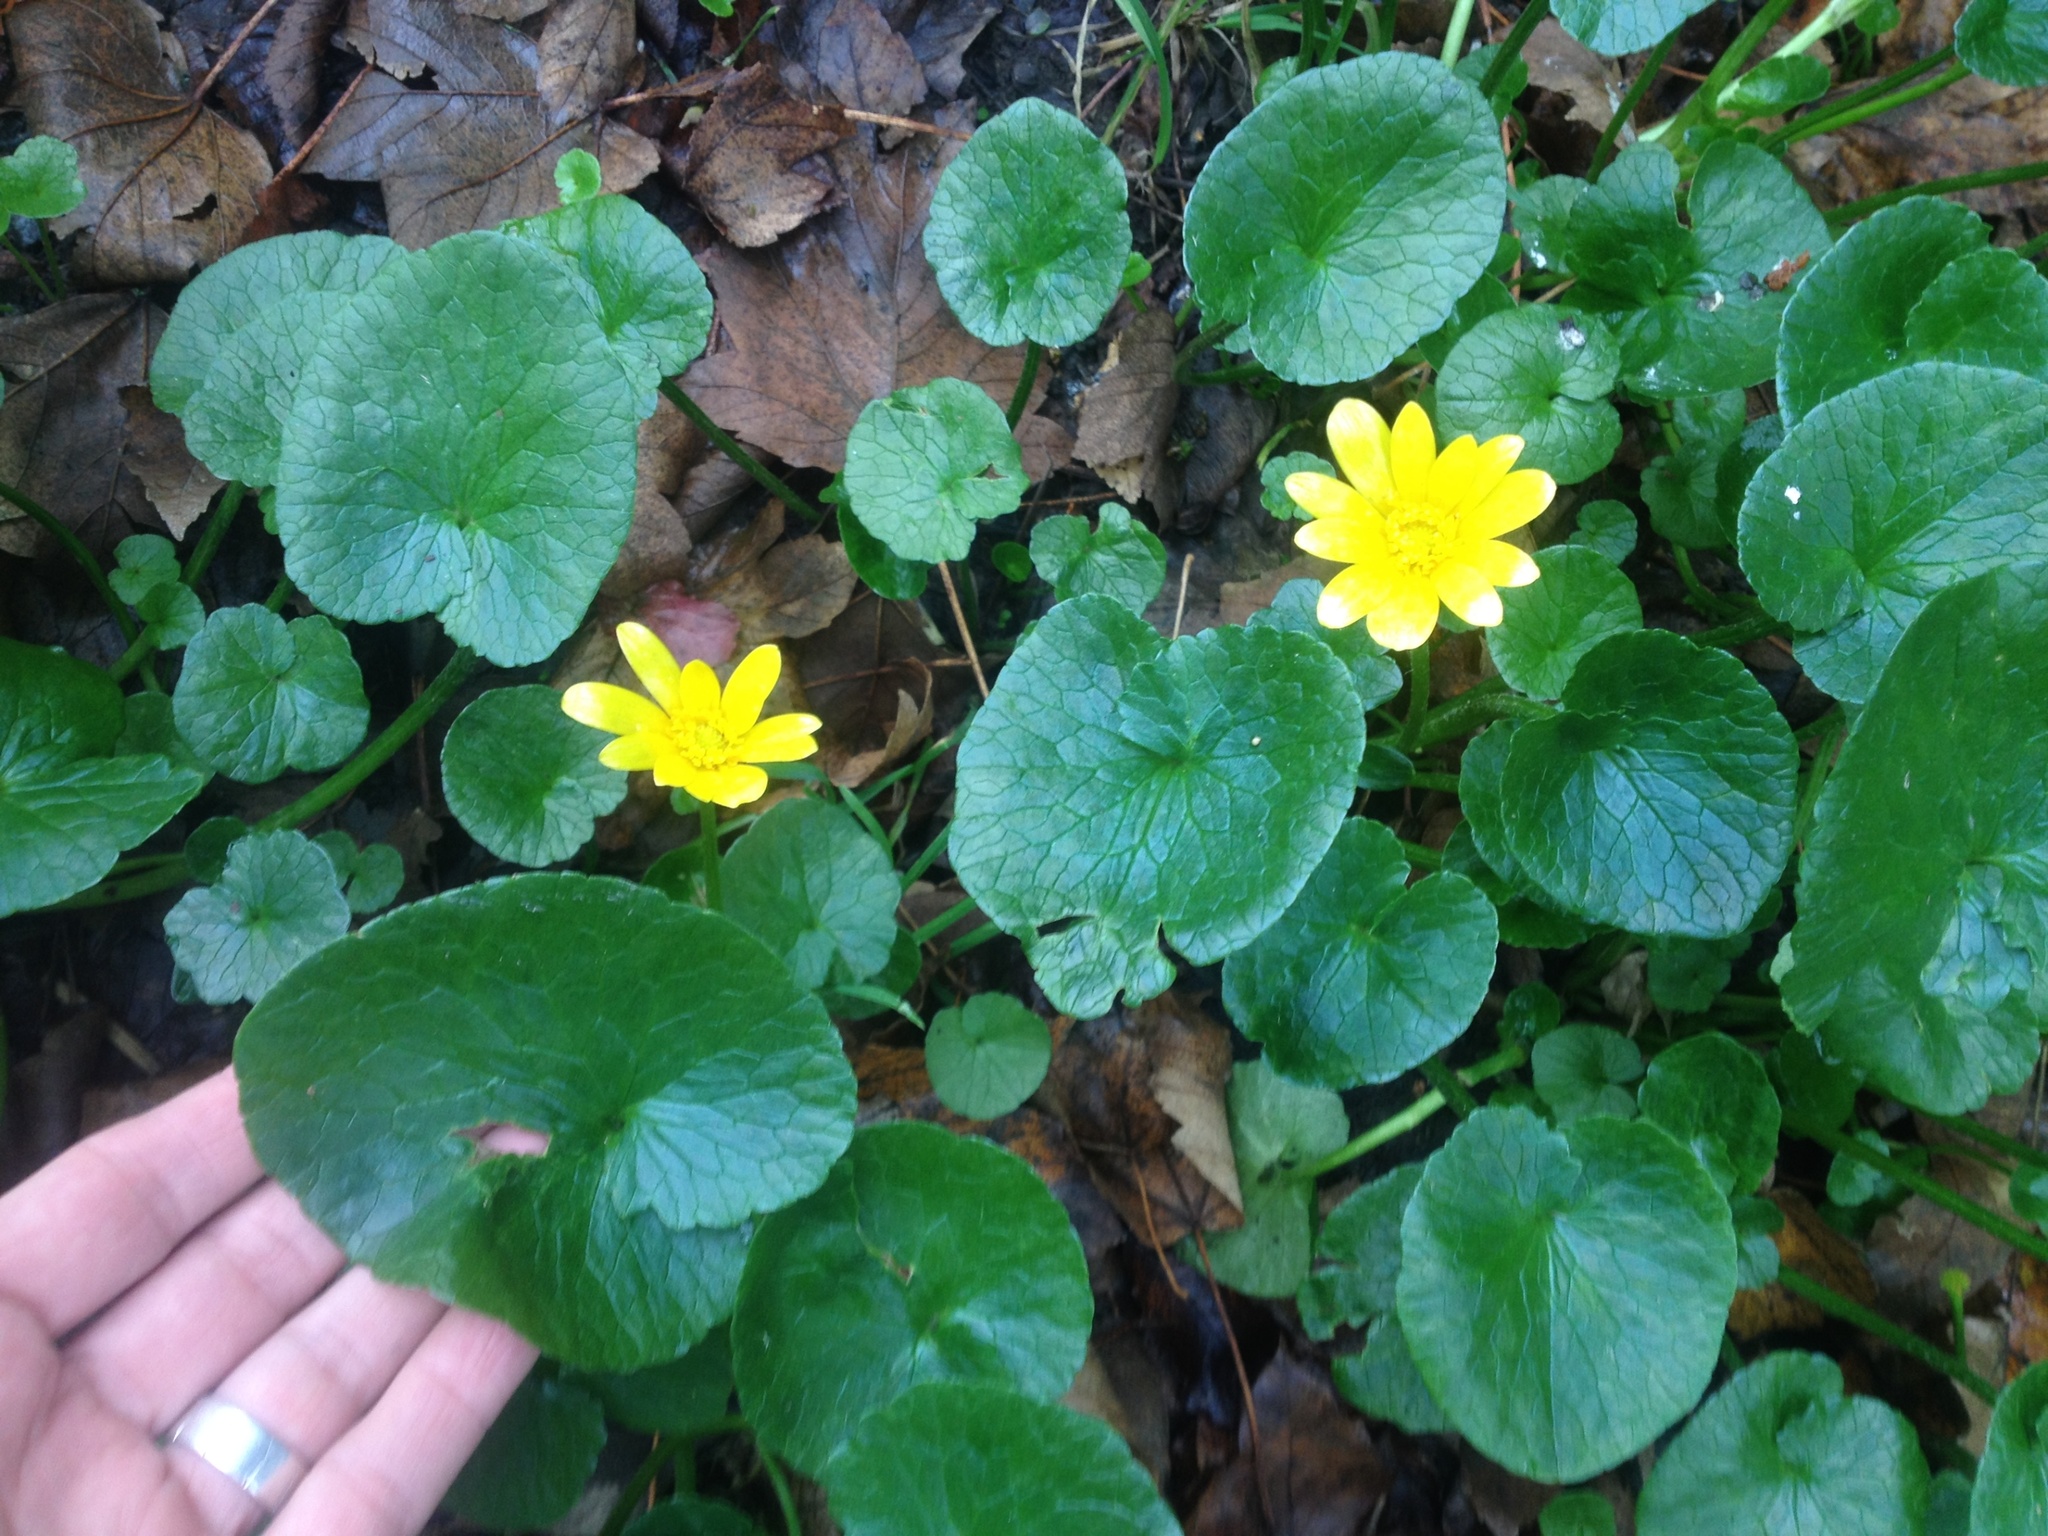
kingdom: Plantae
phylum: Tracheophyta
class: Magnoliopsida
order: Ranunculales
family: Ranunculaceae
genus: Ficaria
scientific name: Ficaria grandiflora
